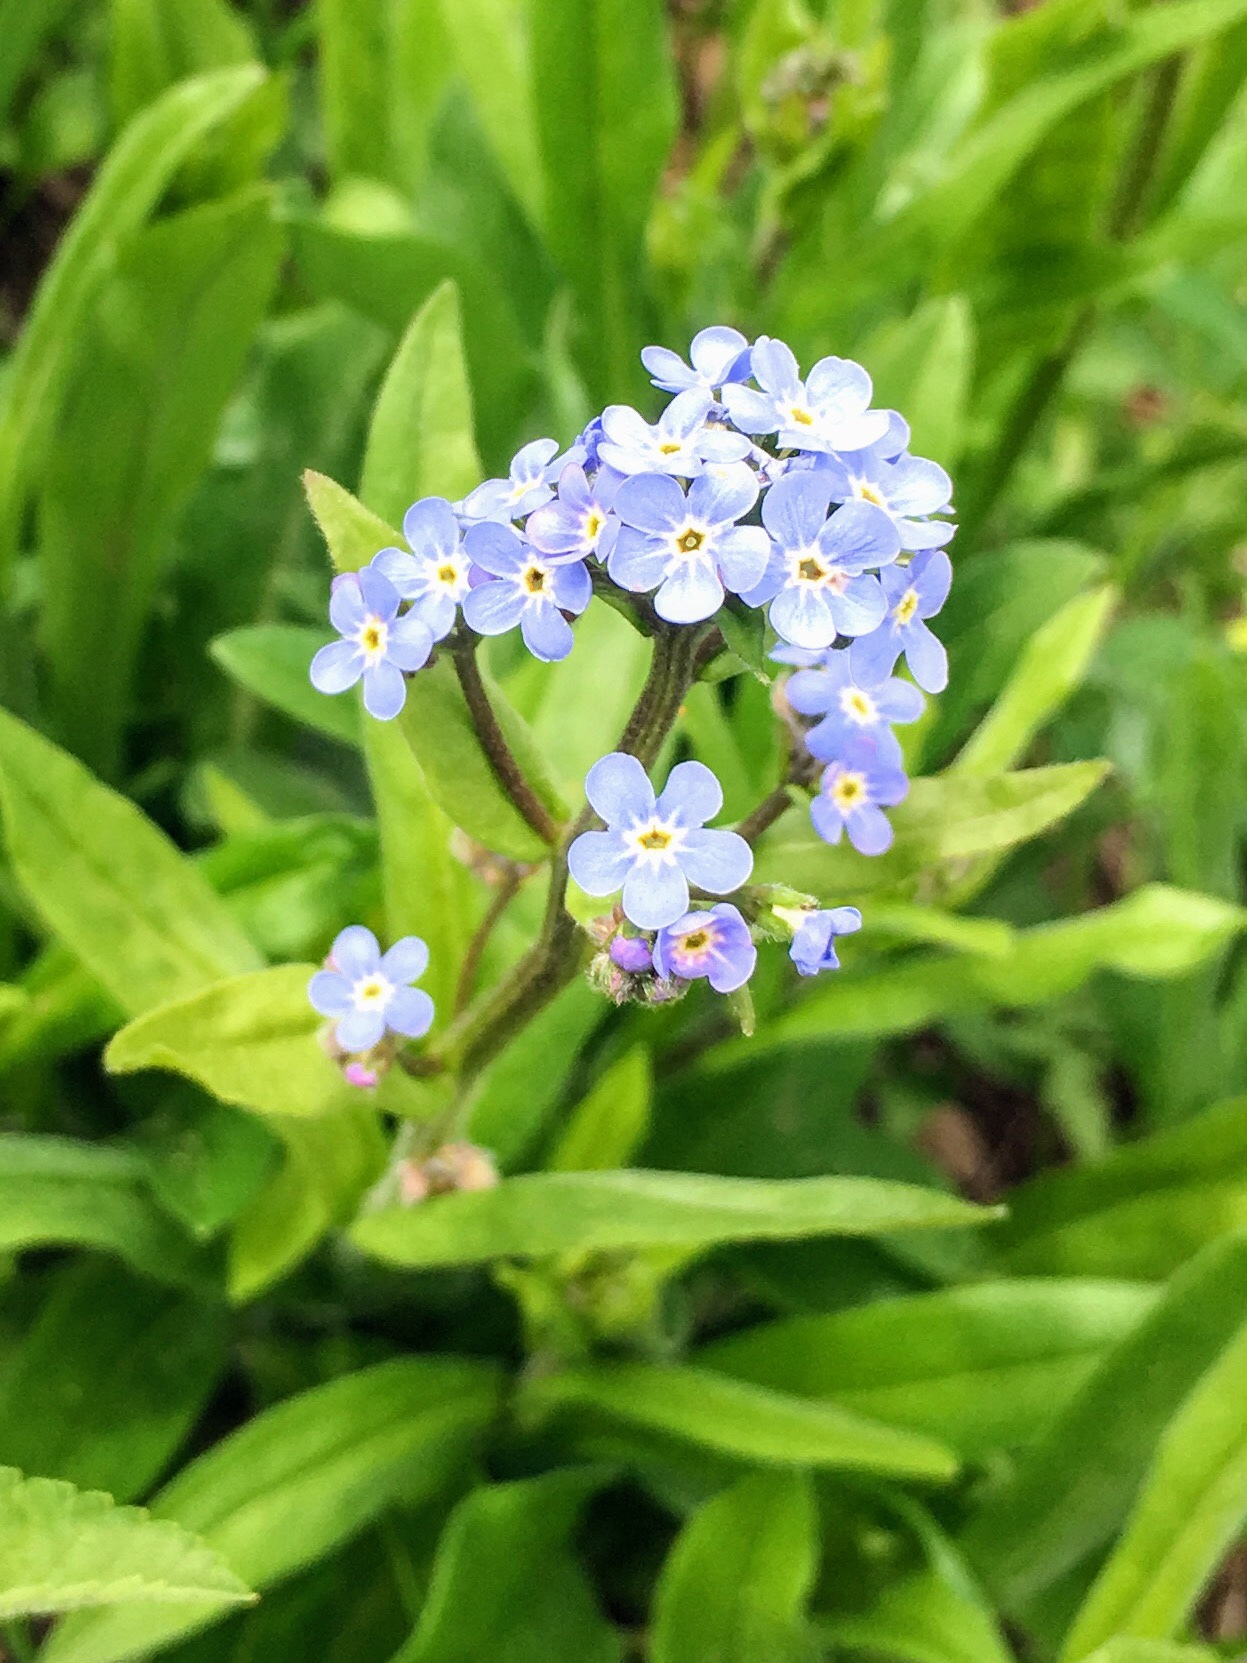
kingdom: Plantae
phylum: Tracheophyta
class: Magnoliopsida
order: Boraginales
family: Boraginaceae
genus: Hackelia
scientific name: Hackelia floribunda
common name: Large-flowered stickseed
